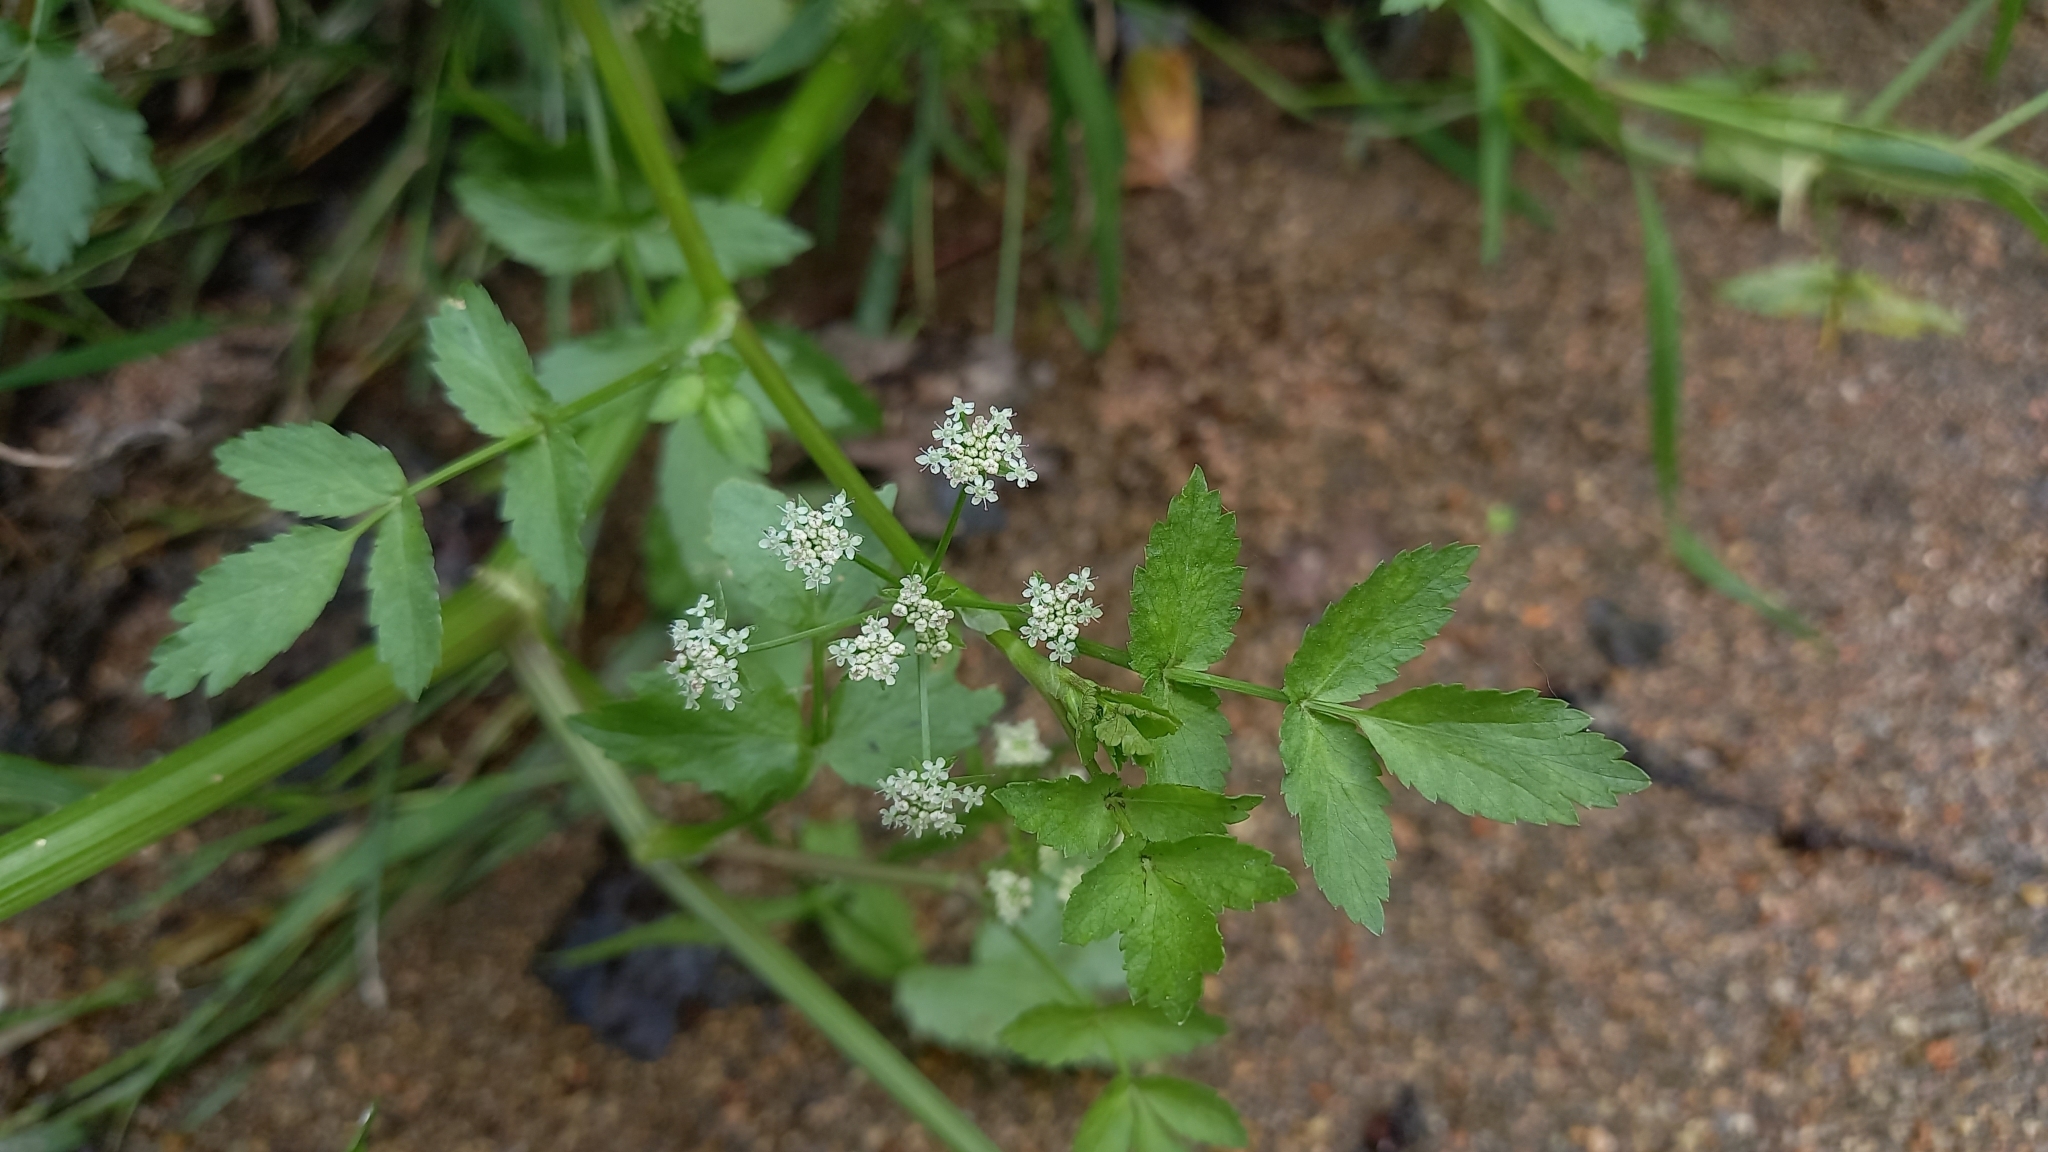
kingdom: Plantae
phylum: Tracheophyta
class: Magnoliopsida
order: Apiales
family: Apiaceae
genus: Helosciadium
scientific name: Helosciadium nodiflorum
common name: Fool's-watercress
